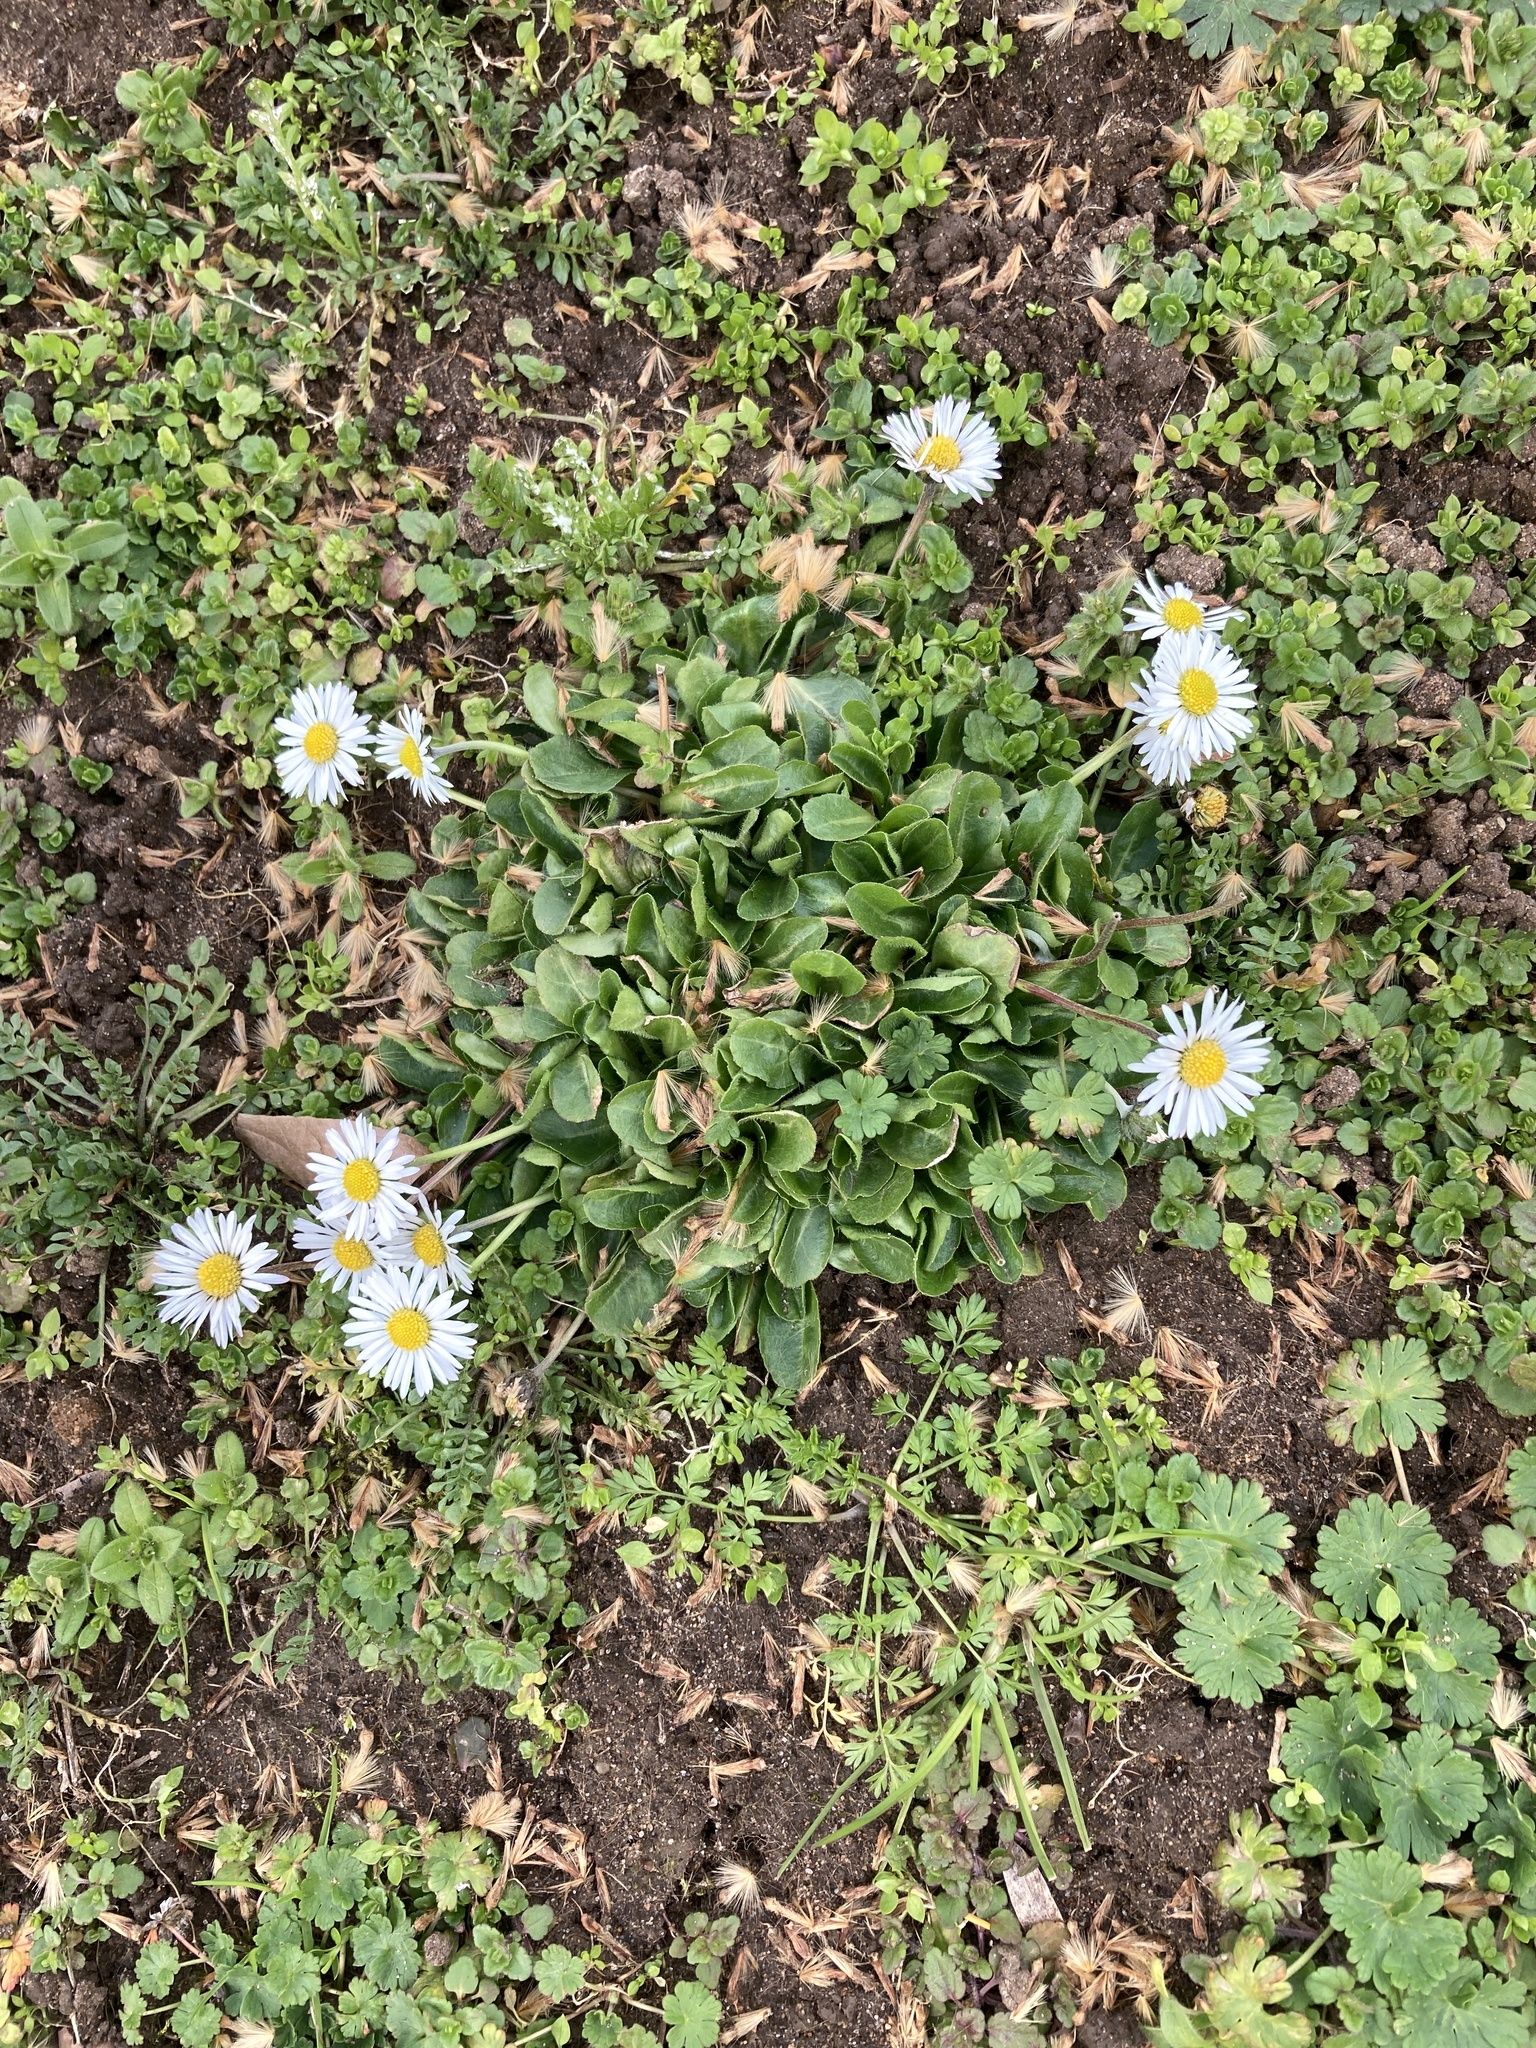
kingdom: Plantae
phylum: Tracheophyta
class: Magnoliopsida
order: Asterales
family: Asteraceae
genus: Bellis
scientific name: Bellis perennis
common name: Lawndaisy
